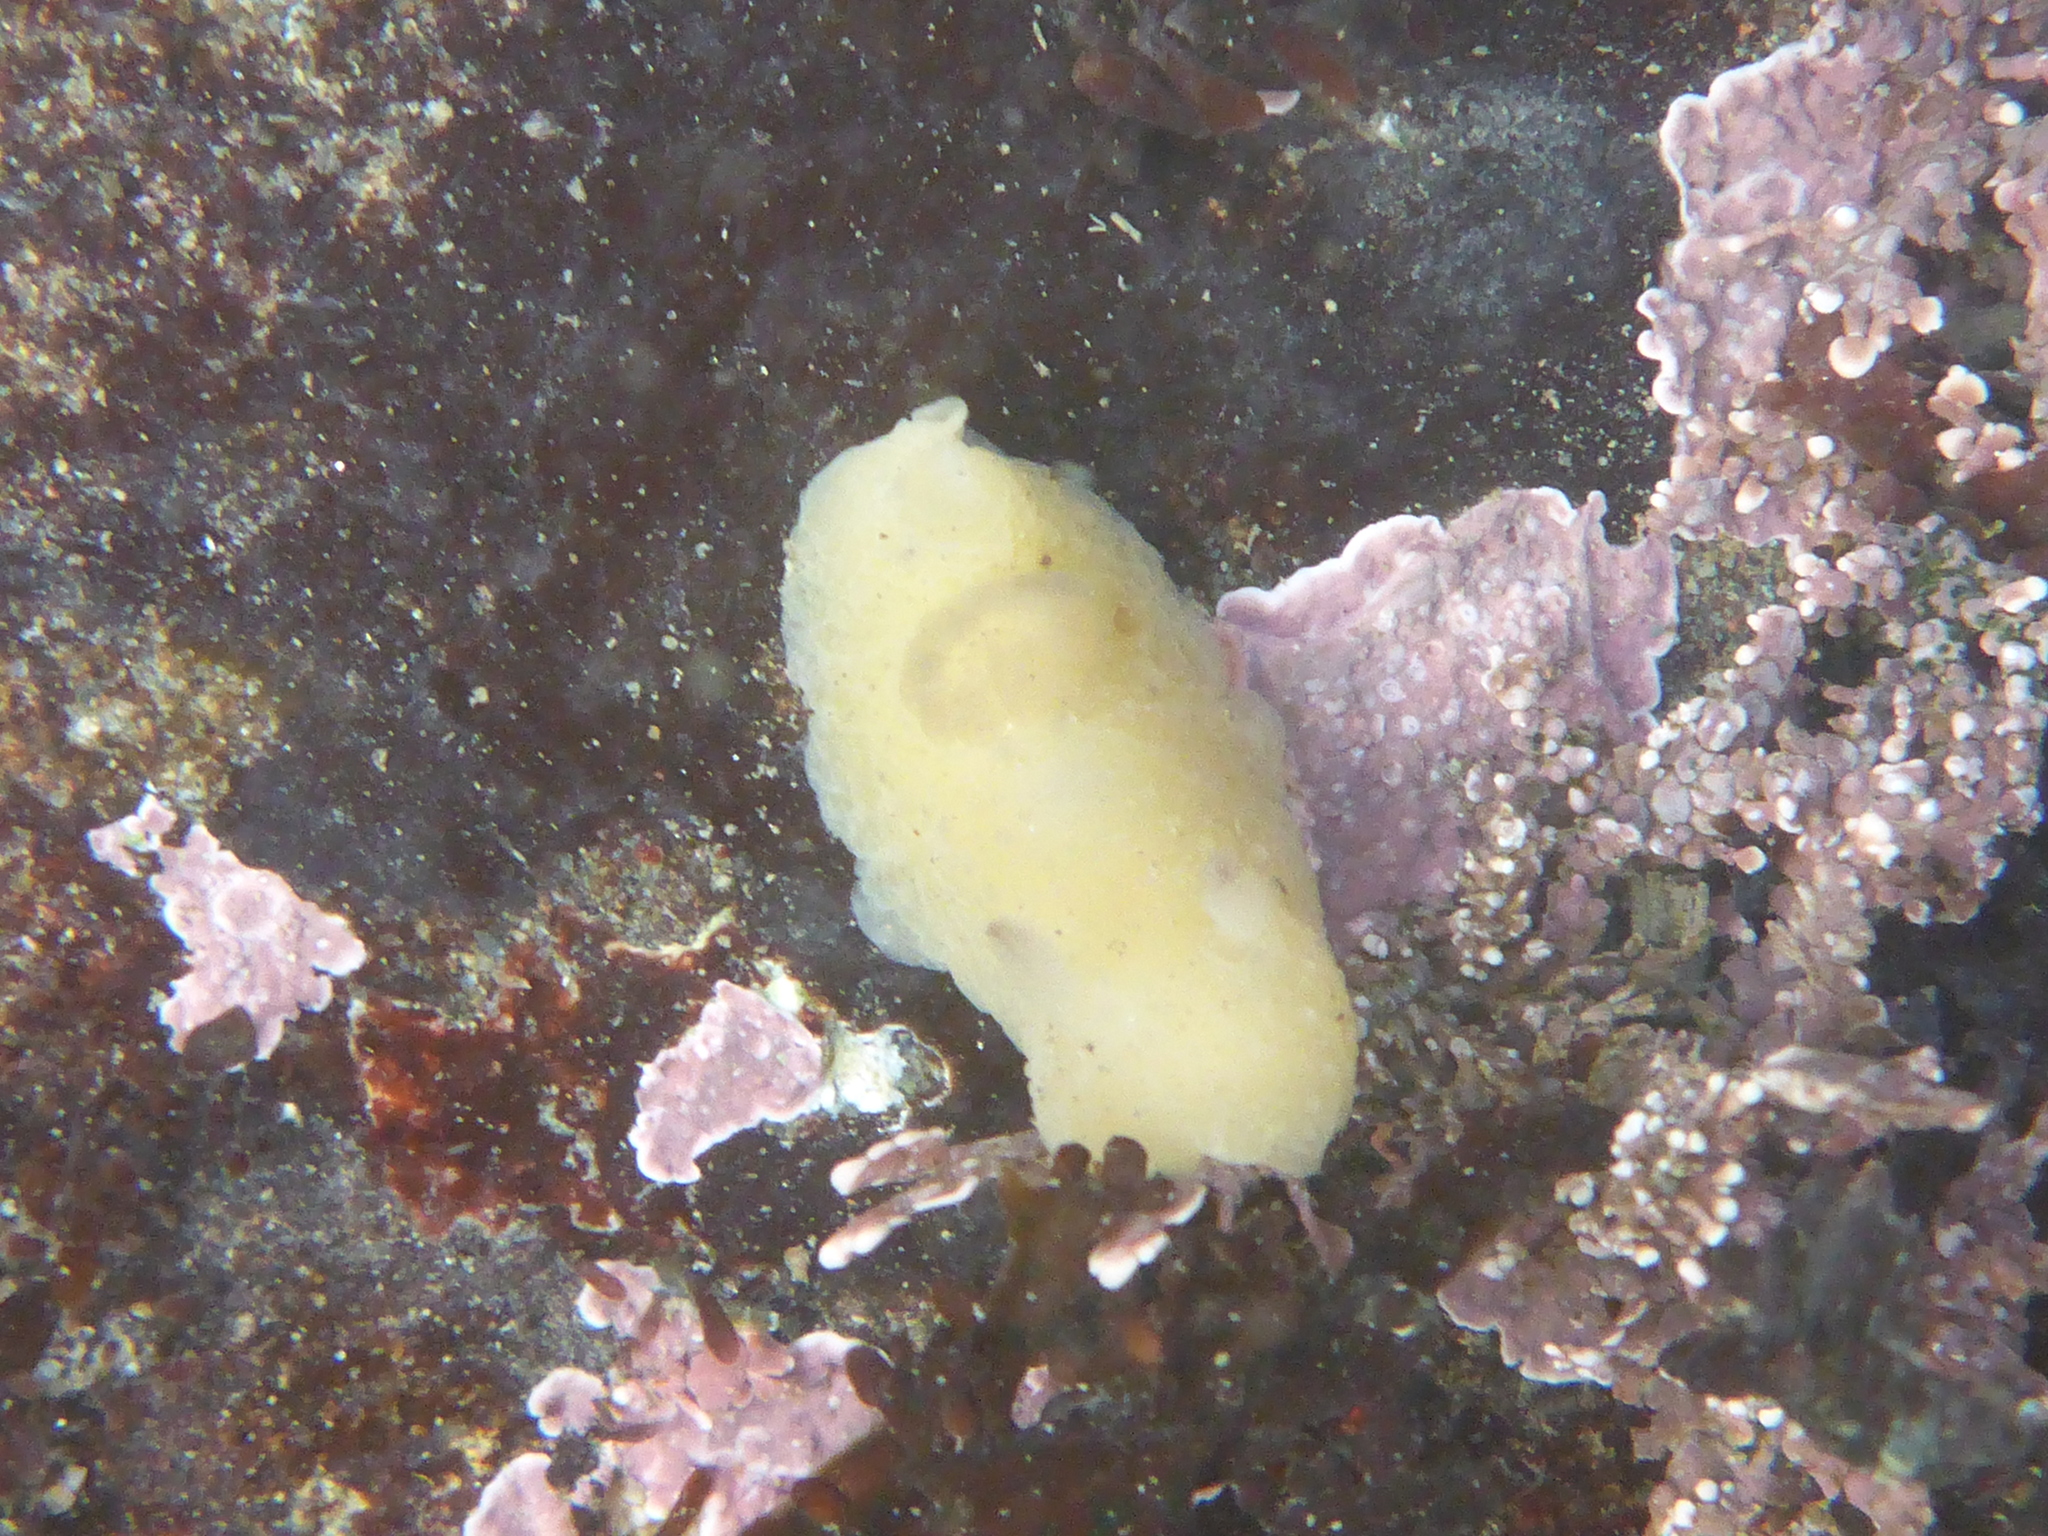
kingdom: Animalia
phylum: Mollusca
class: Gastropoda
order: Nudibranchia
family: Actinocyclidae
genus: Hallaxa
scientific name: Hallaxa chani
